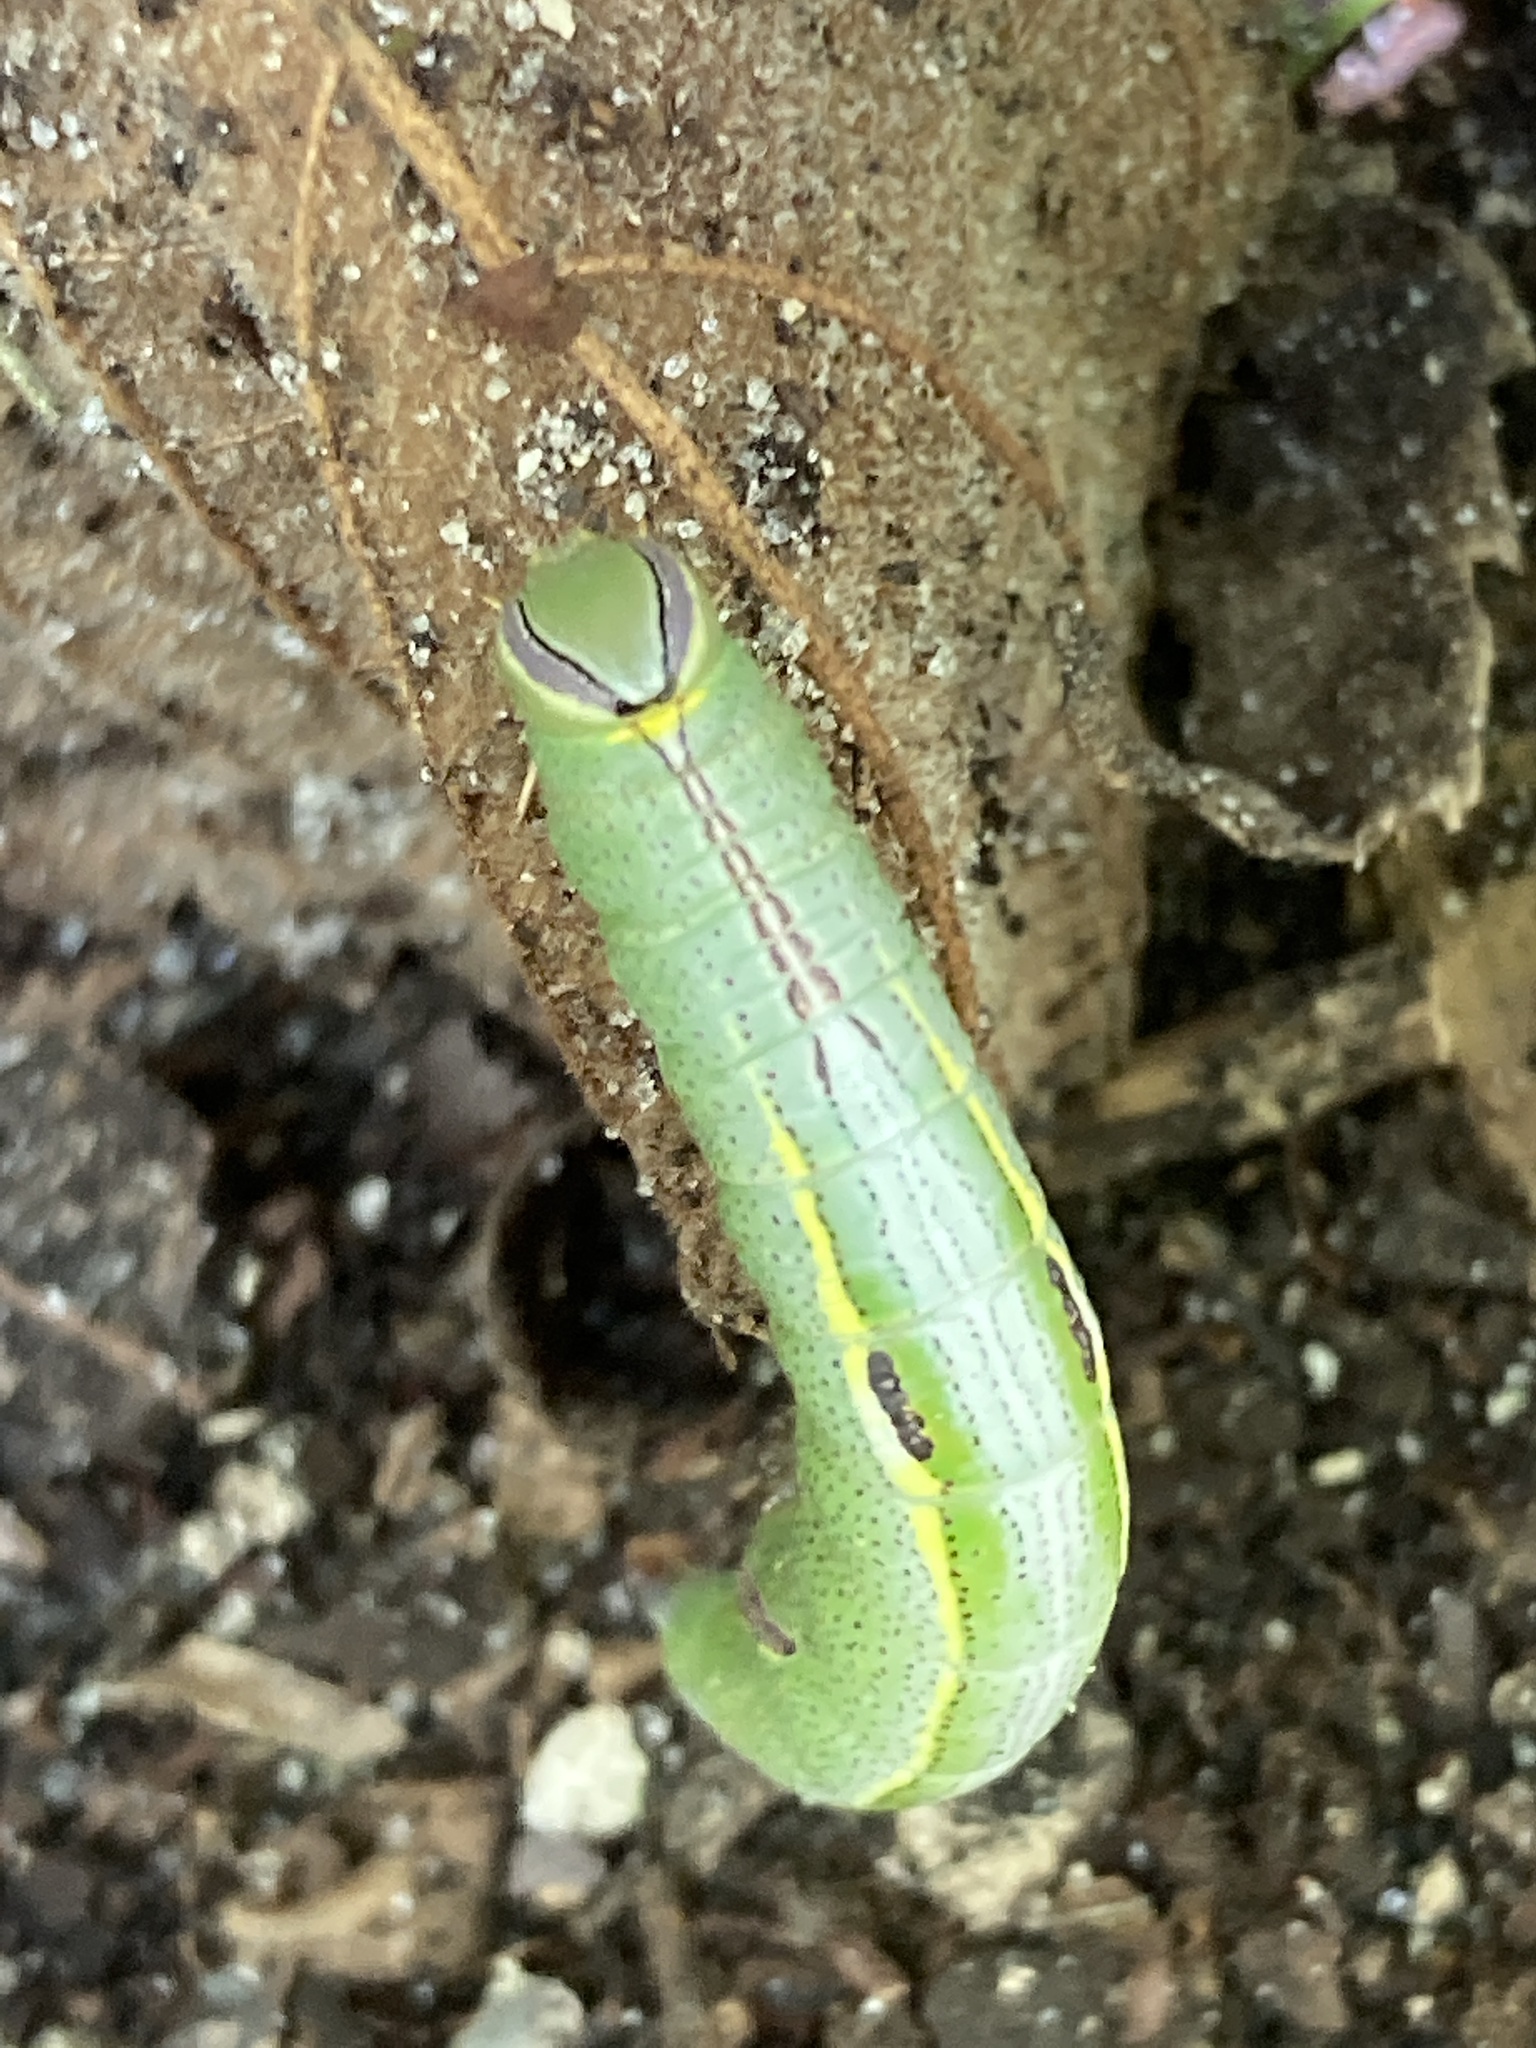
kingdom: Animalia
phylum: Arthropoda
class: Insecta
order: Lepidoptera
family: Notodontidae
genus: Disphragis
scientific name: Disphragis Cecrita guttivitta
